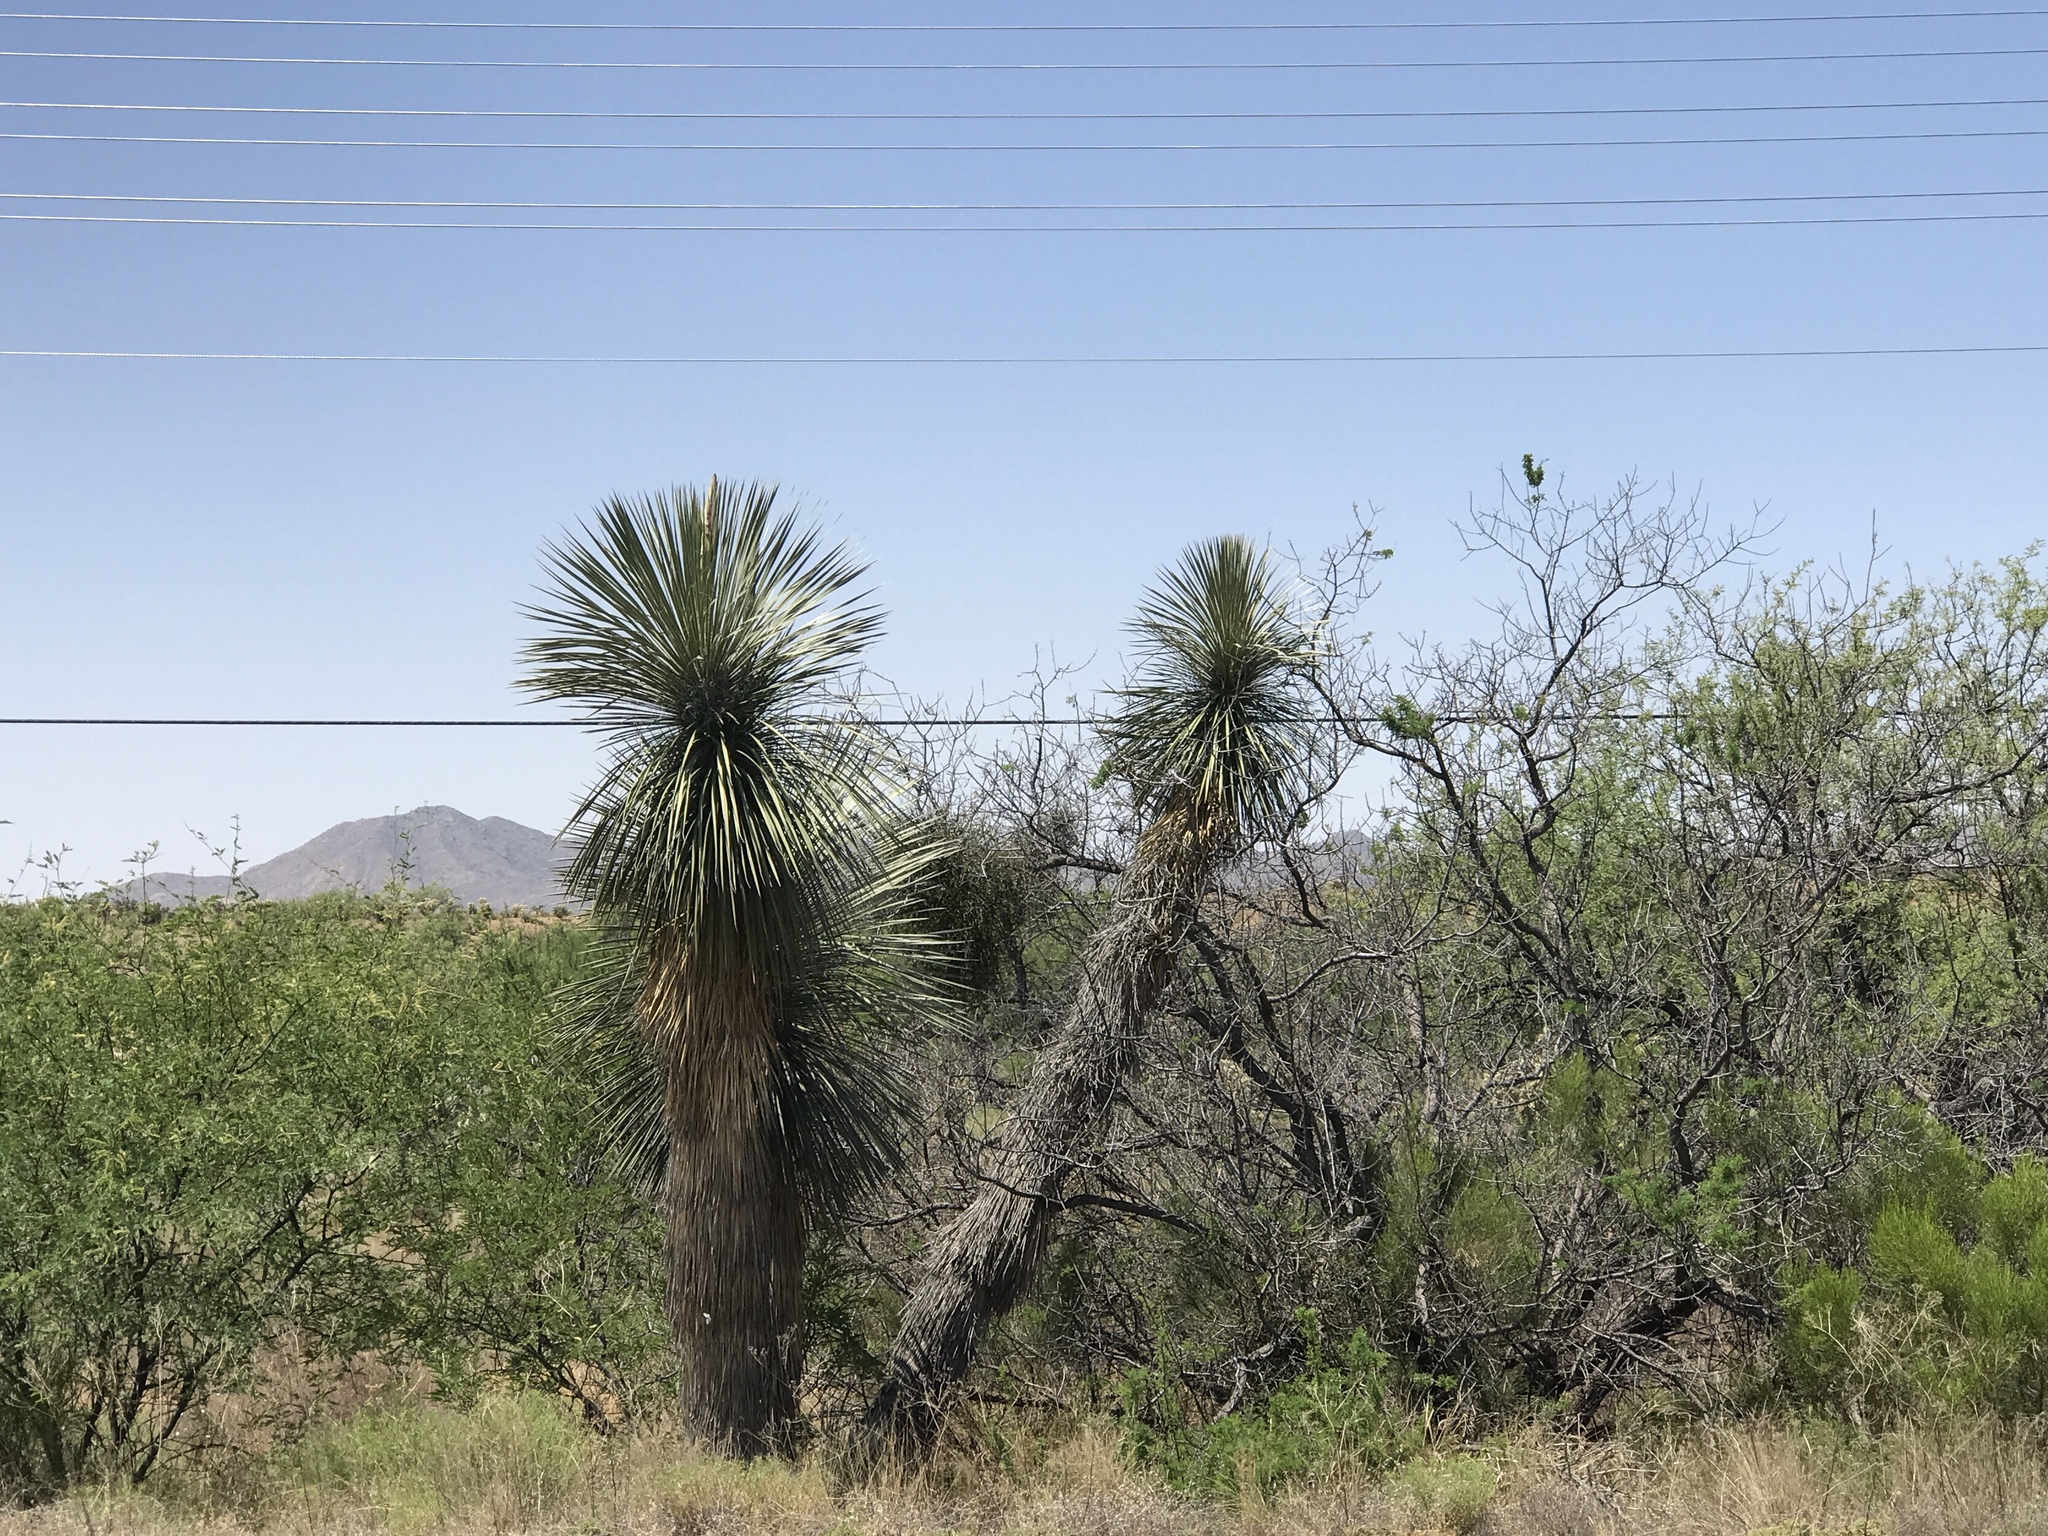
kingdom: Plantae
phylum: Tracheophyta
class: Liliopsida
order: Asparagales
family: Asparagaceae
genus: Yucca
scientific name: Yucca elata
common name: Palmella
